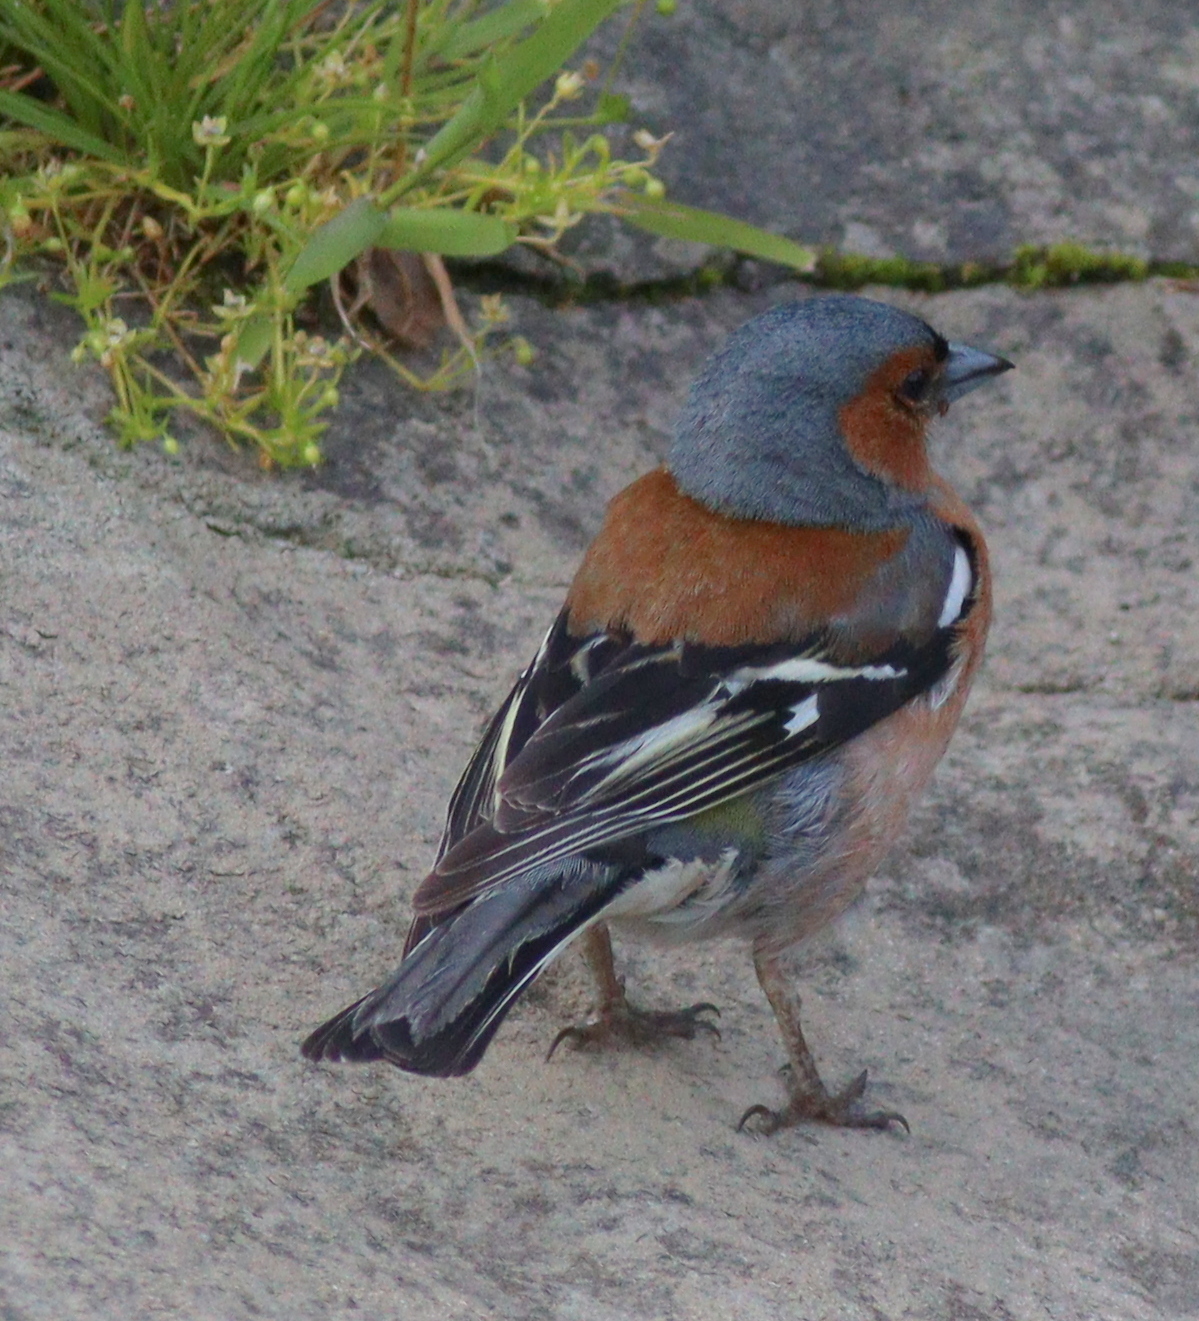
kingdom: Animalia
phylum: Chordata
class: Aves
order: Passeriformes
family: Fringillidae
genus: Fringilla
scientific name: Fringilla coelebs
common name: Common chaffinch
